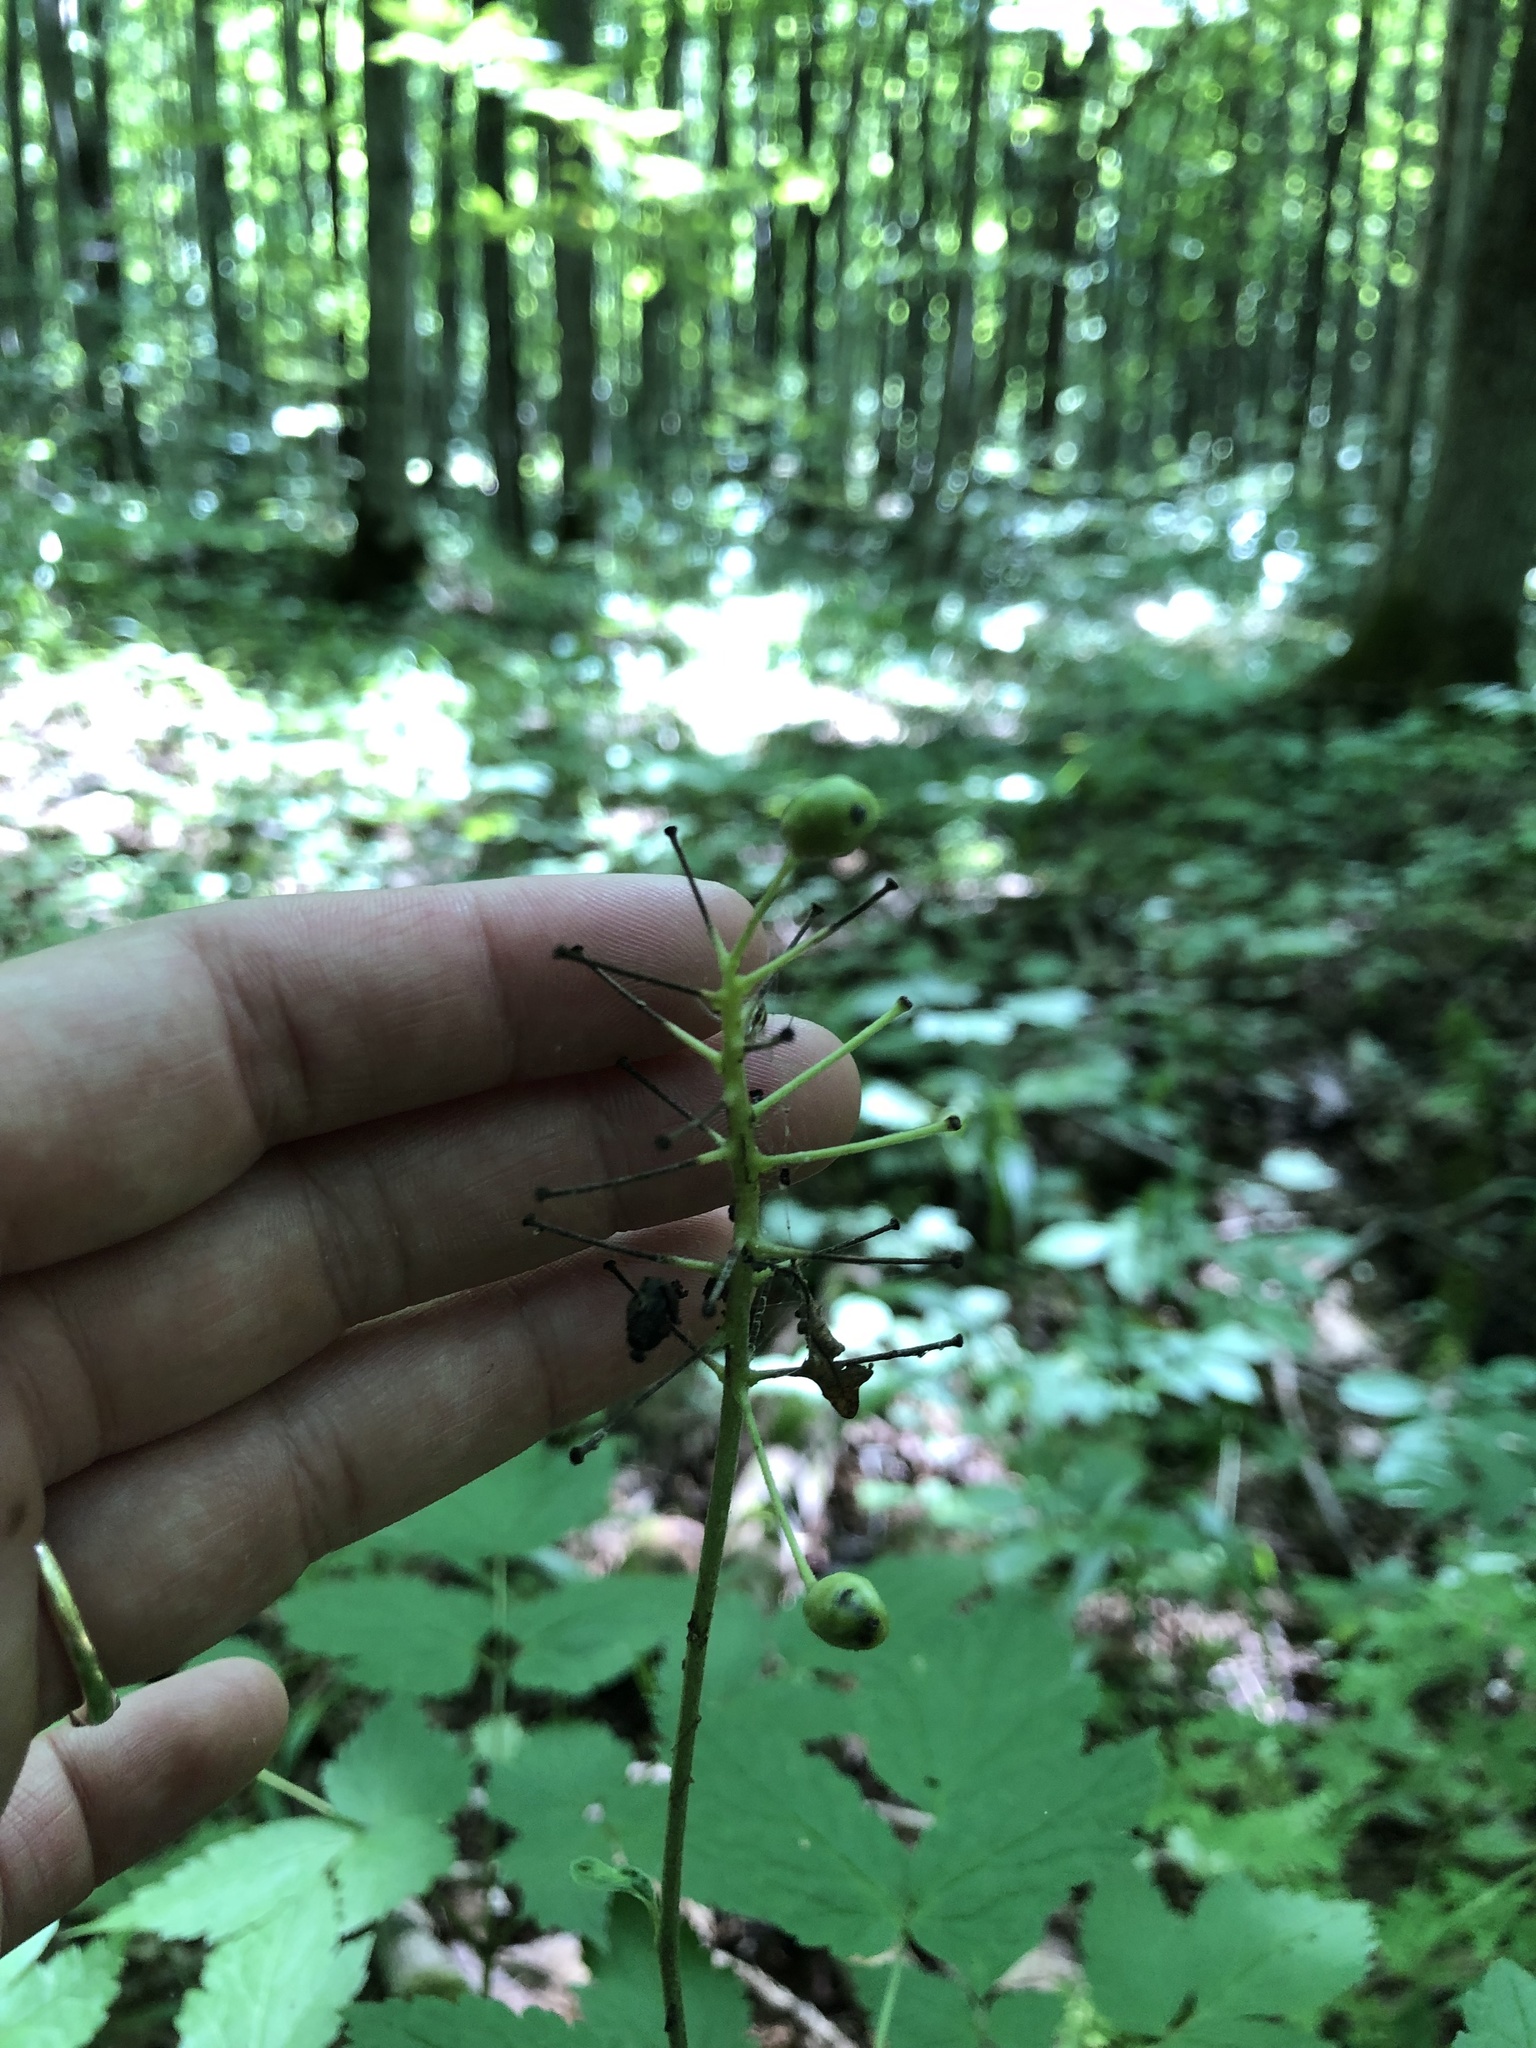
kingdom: Plantae
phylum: Tracheophyta
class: Magnoliopsida
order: Ranunculales
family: Ranunculaceae
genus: Actaea
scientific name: Actaea rubra
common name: Red baneberry
